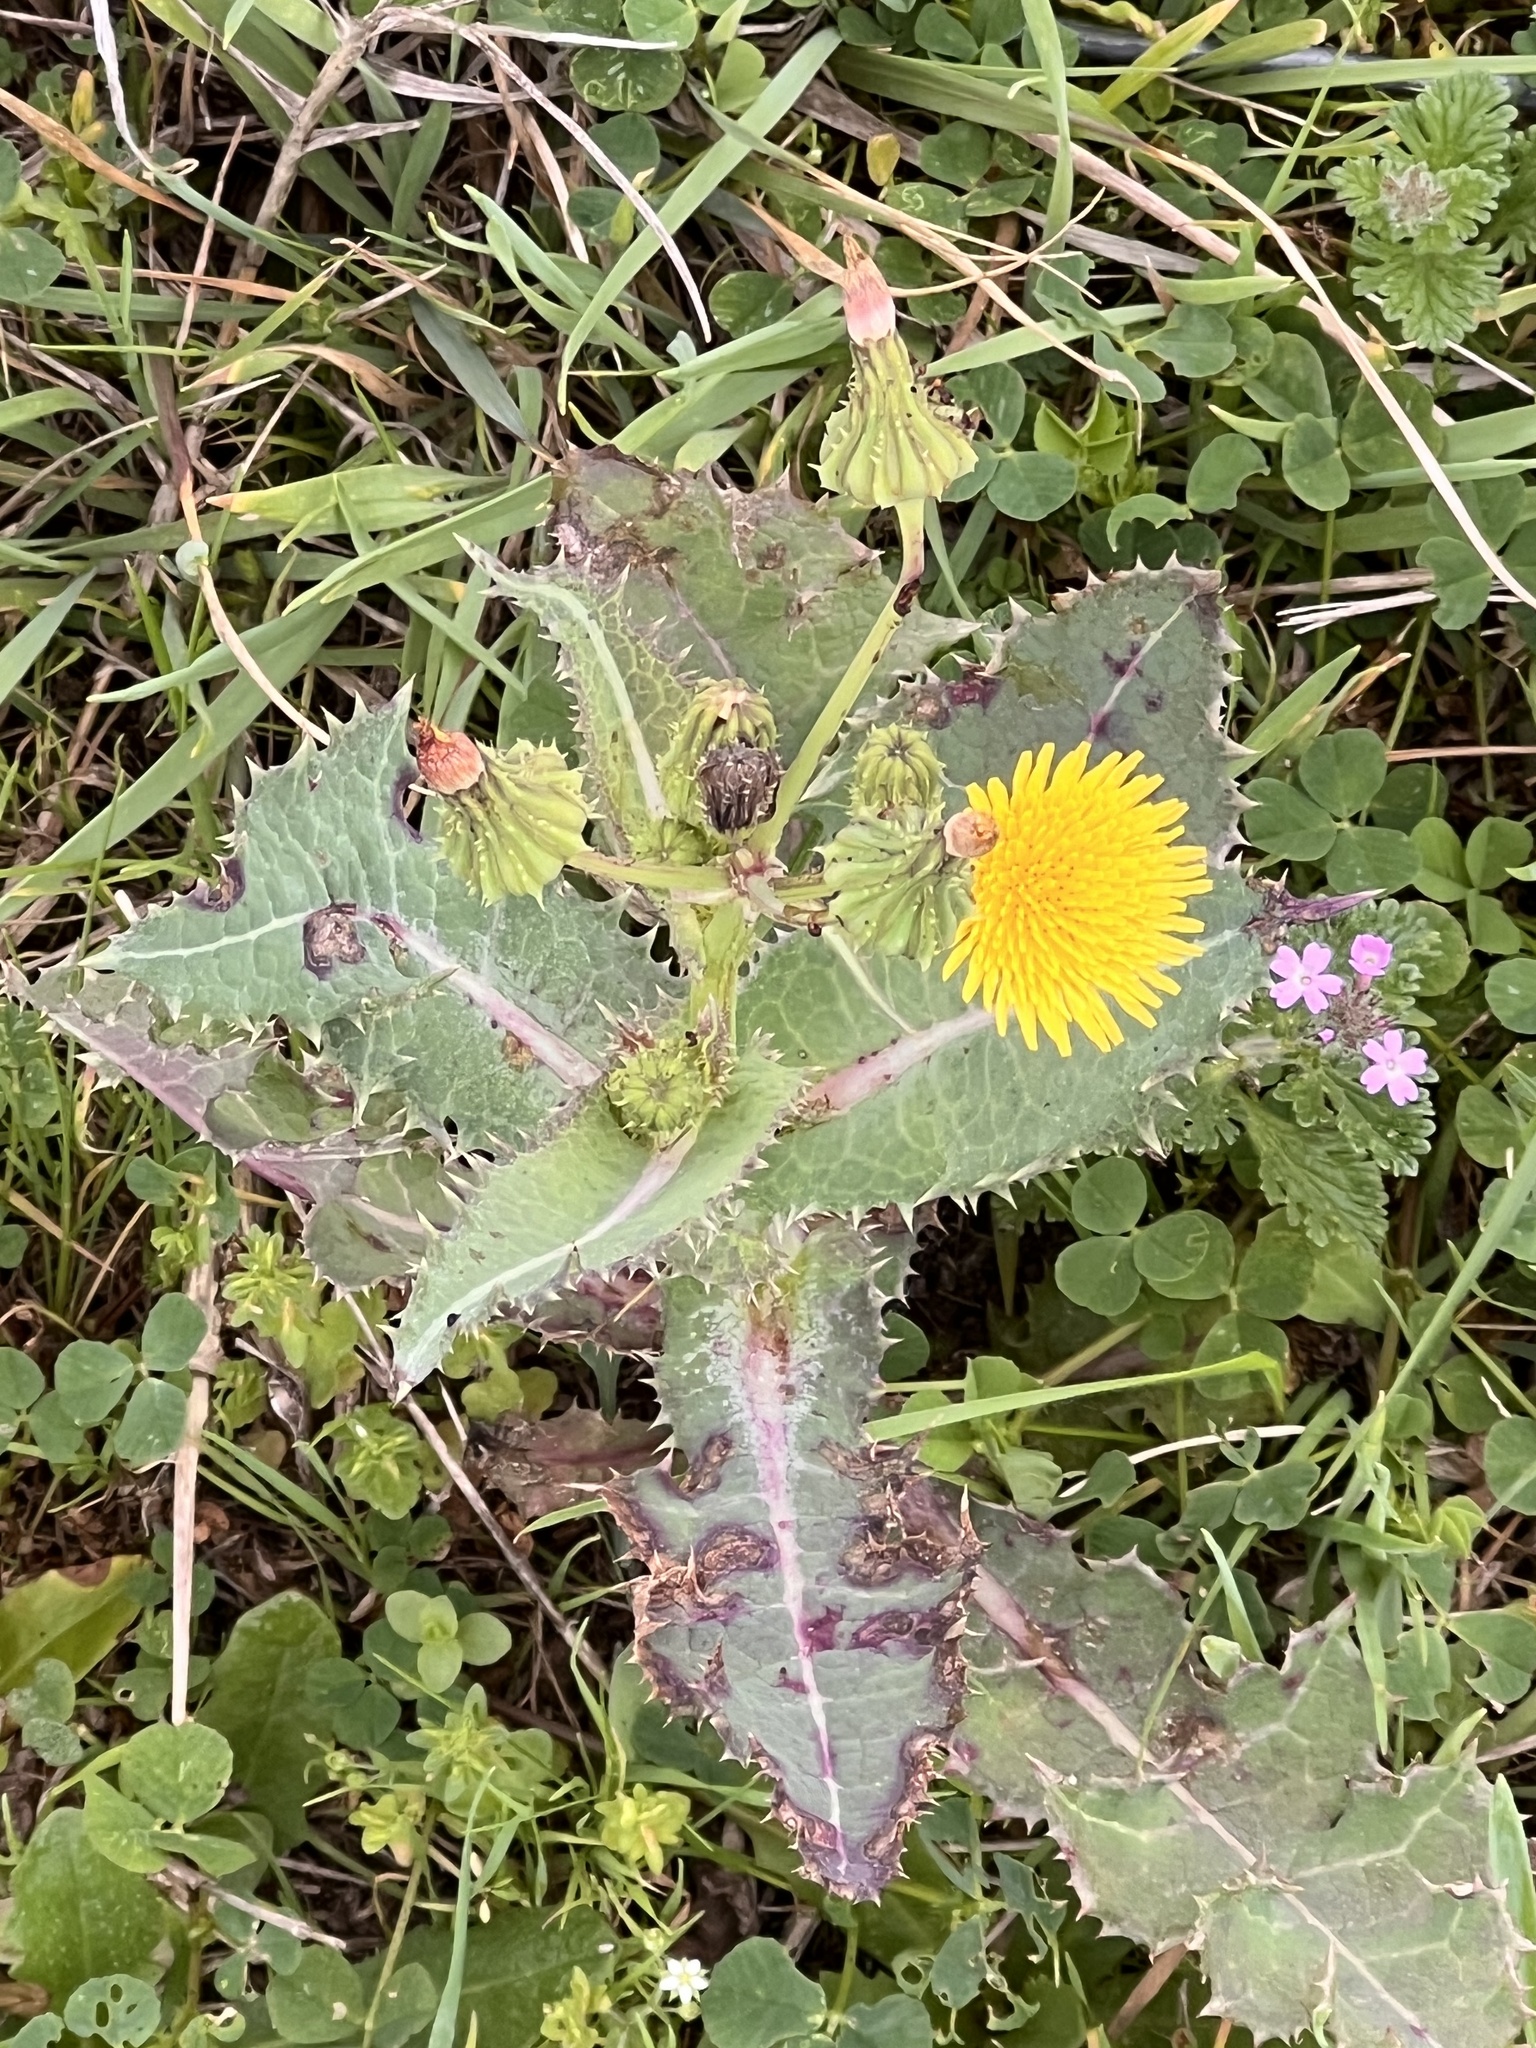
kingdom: Plantae
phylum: Tracheophyta
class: Magnoliopsida
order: Asterales
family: Asteraceae
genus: Sonchus
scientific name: Sonchus asper
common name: Prickly sow-thistle
